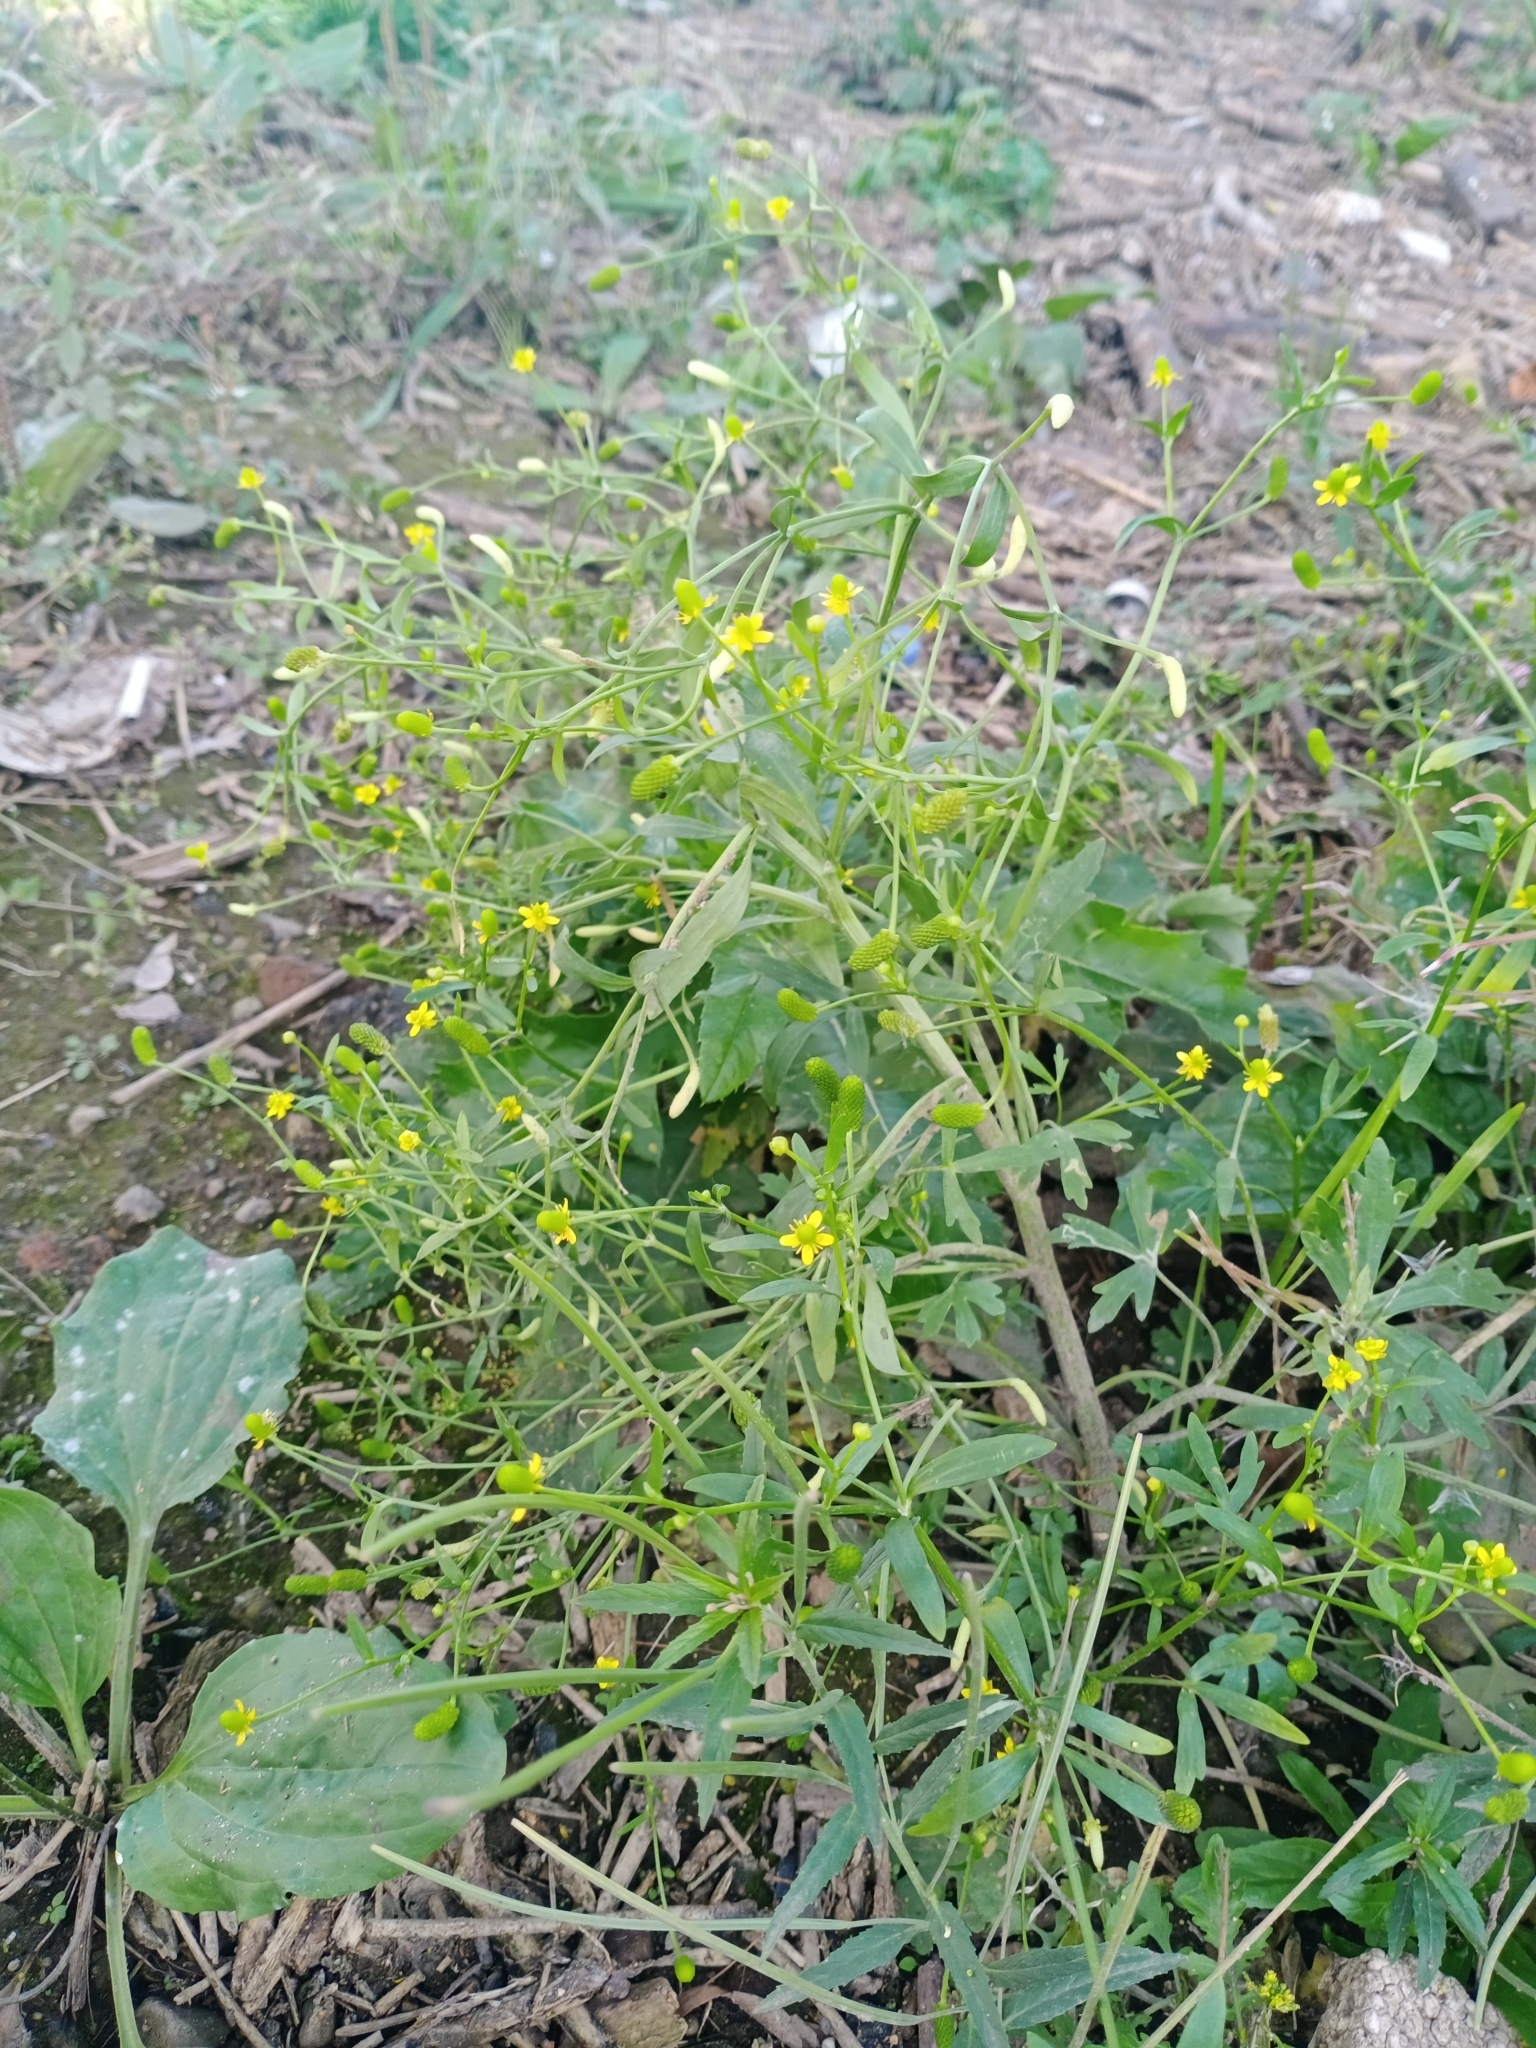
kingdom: Plantae
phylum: Tracheophyta
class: Magnoliopsida
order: Ranunculales
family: Ranunculaceae
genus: Ranunculus
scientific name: Ranunculus sceleratus
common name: Celery-leaved buttercup
